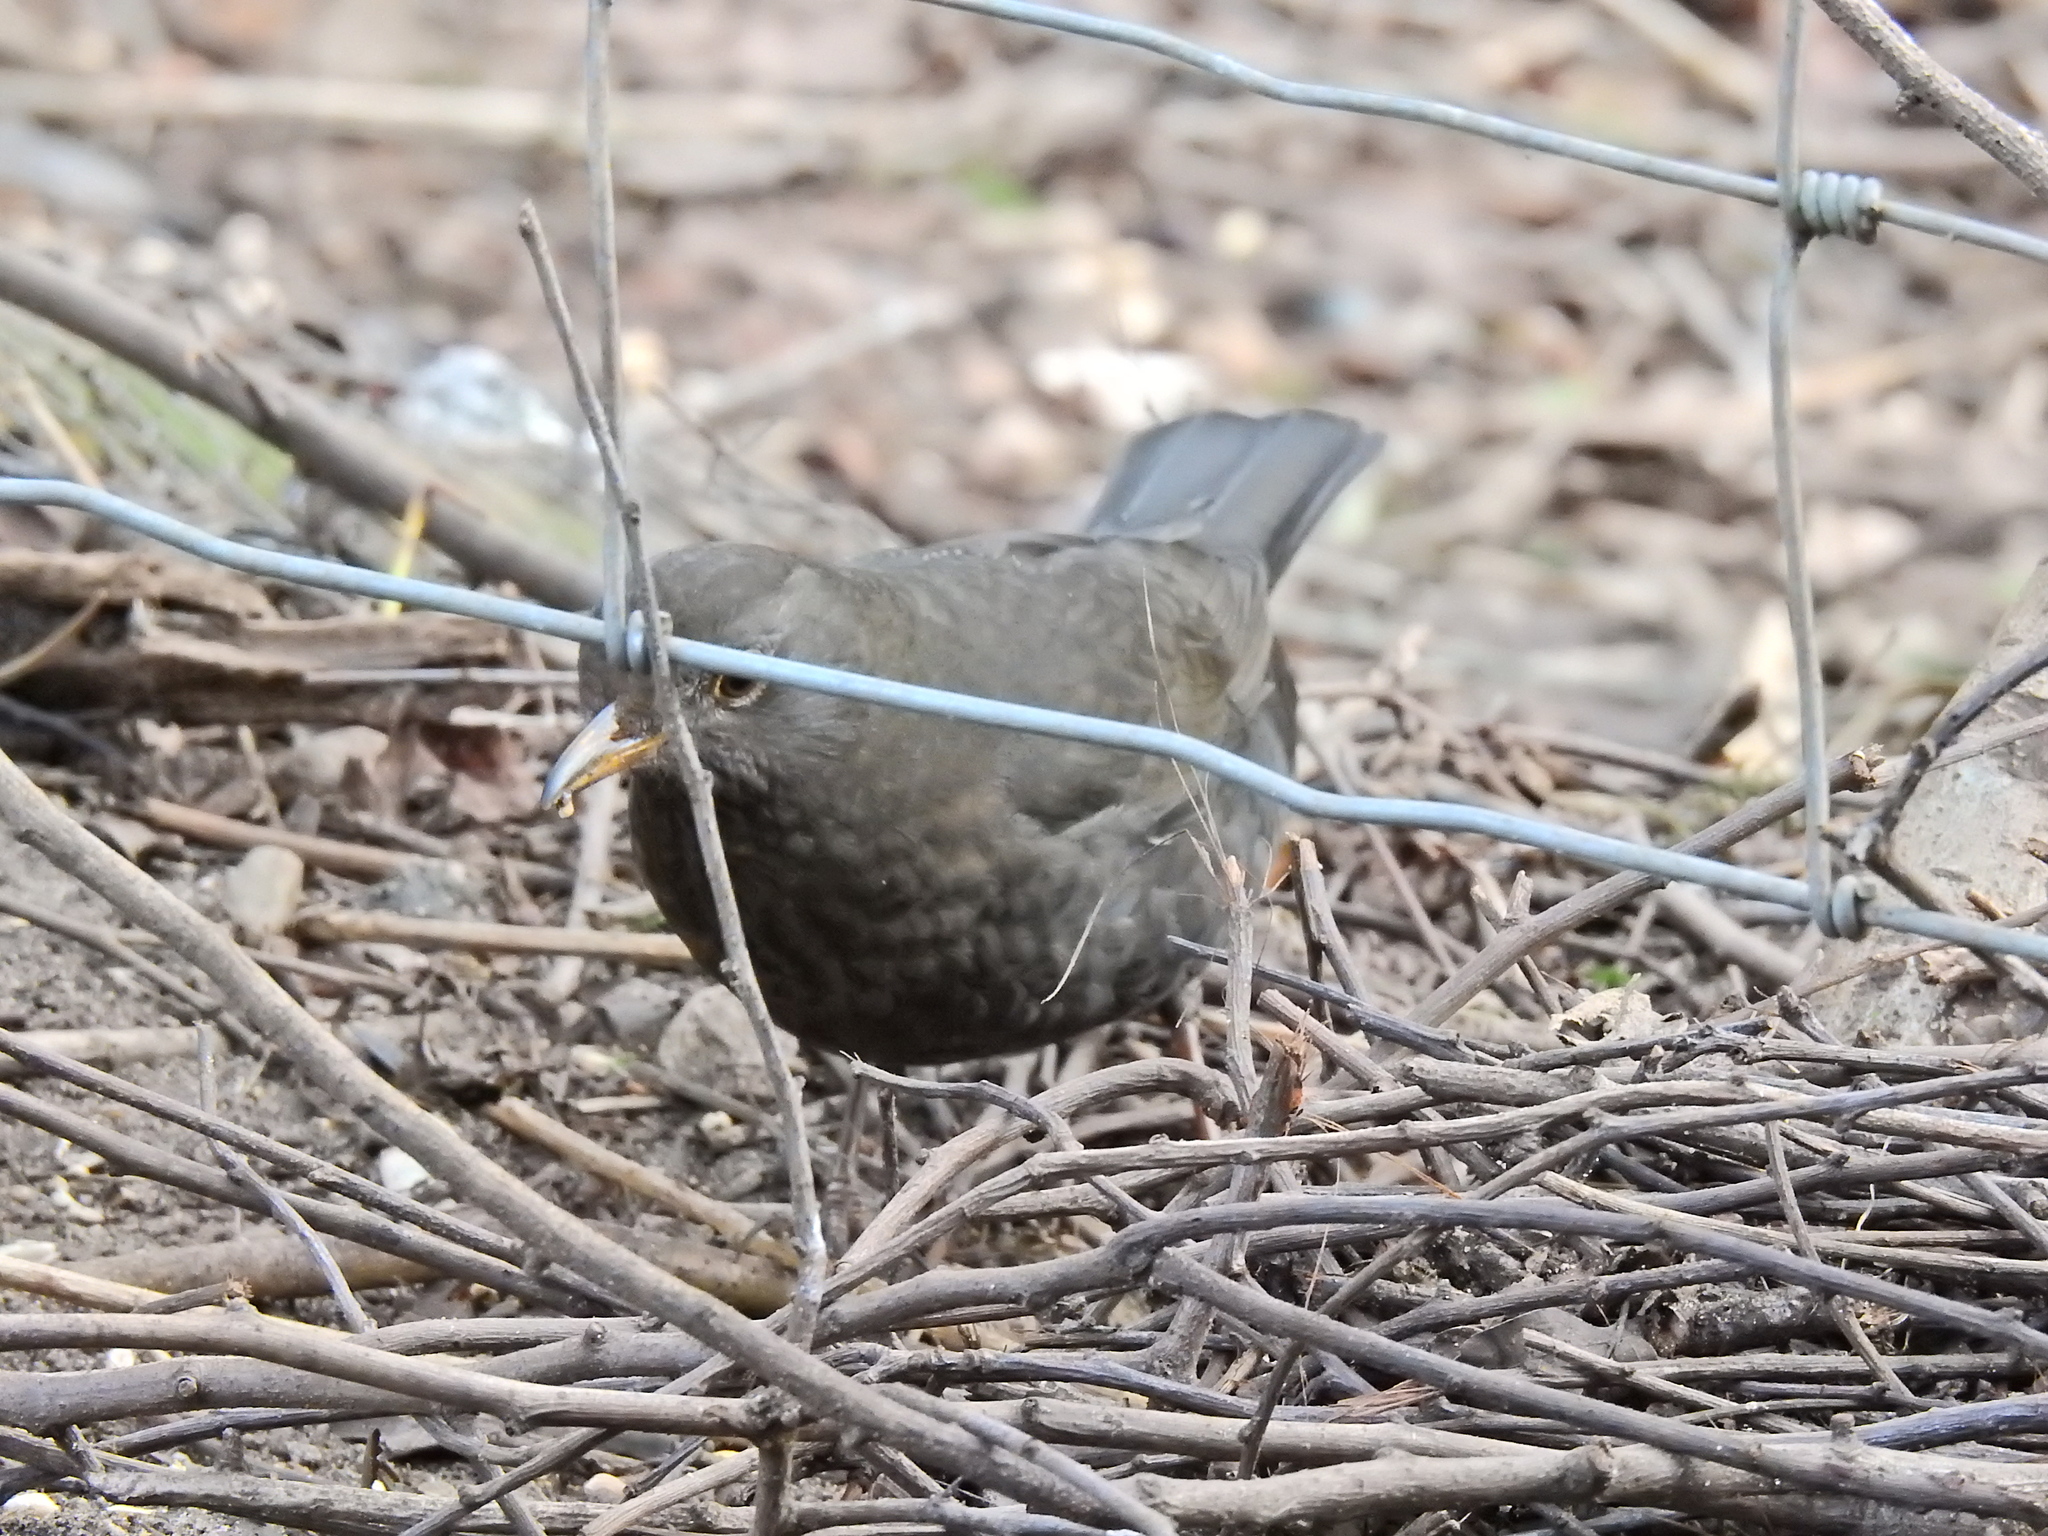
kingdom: Animalia
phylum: Chordata
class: Aves
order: Passeriformes
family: Turdidae
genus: Turdus
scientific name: Turdus merula
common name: Common blackbird
